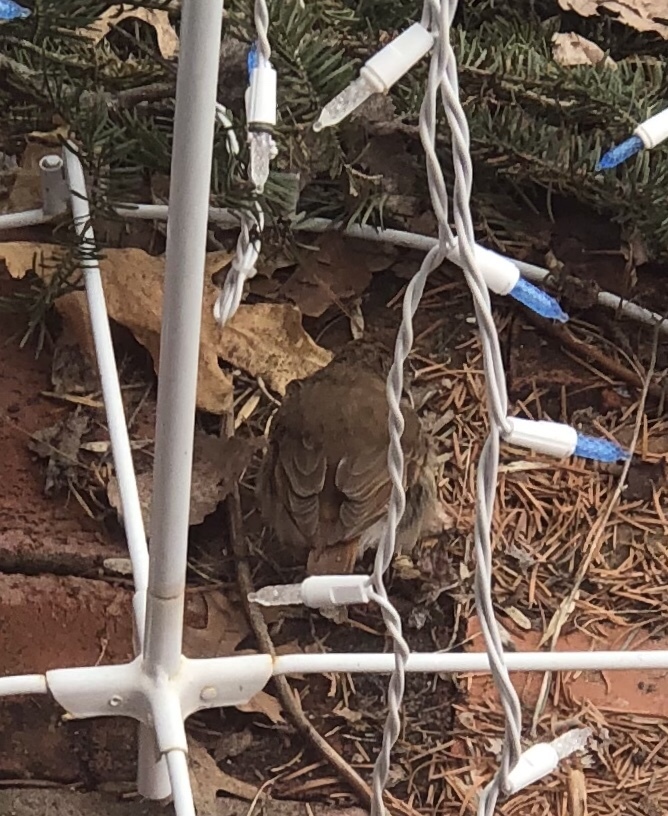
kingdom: Animalia
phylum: Chordata
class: Aves
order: Passeriformes
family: Turdidae
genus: Catharus
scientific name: Catharus guttatus
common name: Hermit thrush
